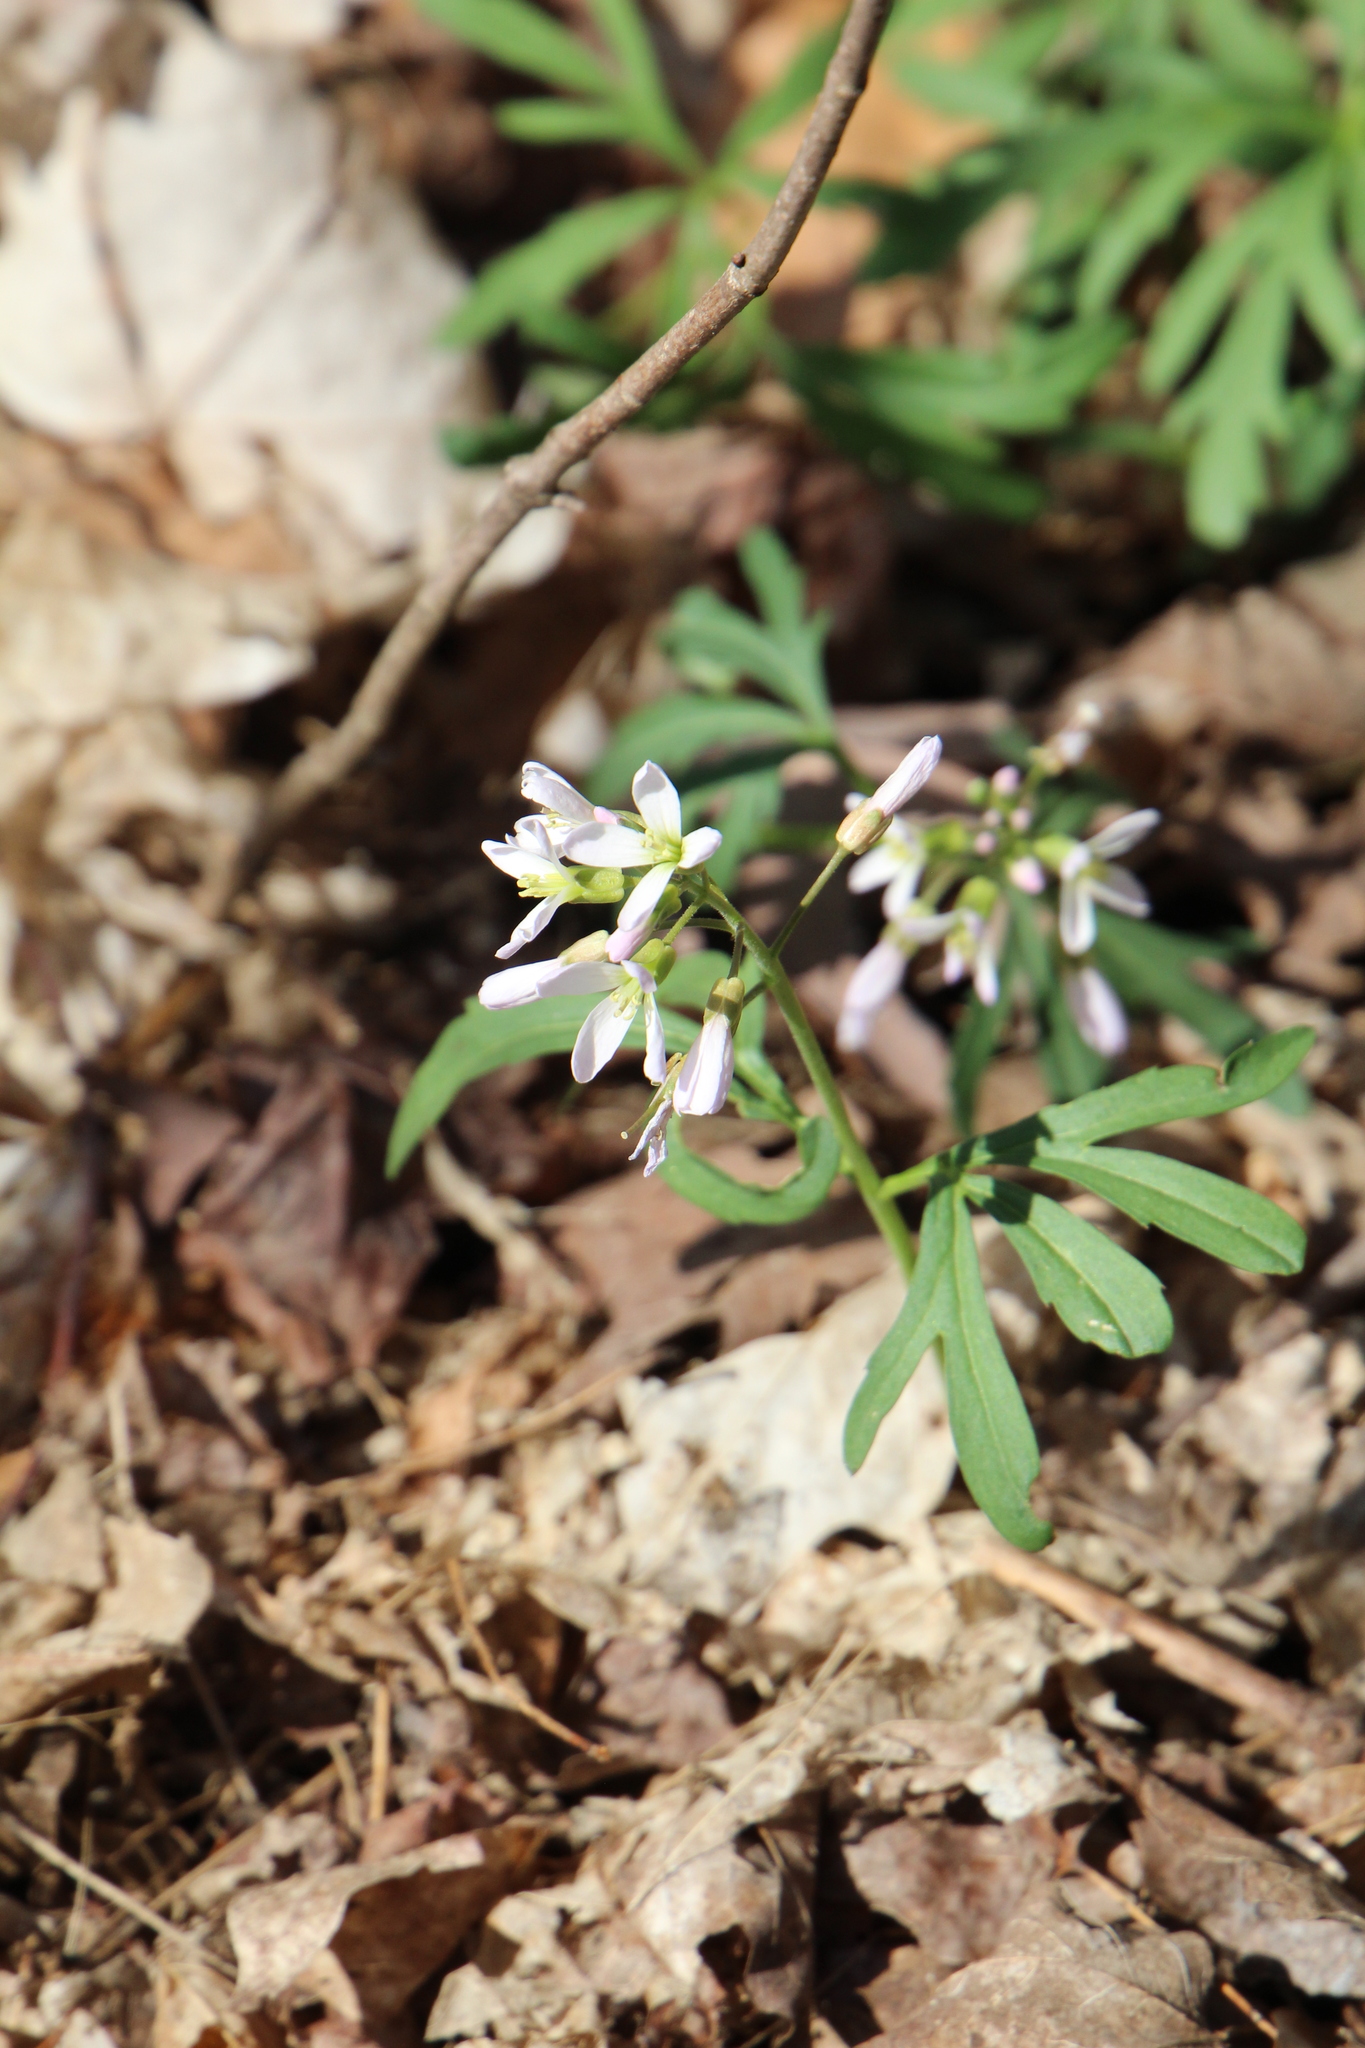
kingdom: Plantae
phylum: Tracheophyta
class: Magnoliopsida
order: Brassicales
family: Brassicaceae
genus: Cardamine
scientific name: Cardamine concatenata
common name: Cut-leaf toothcup
